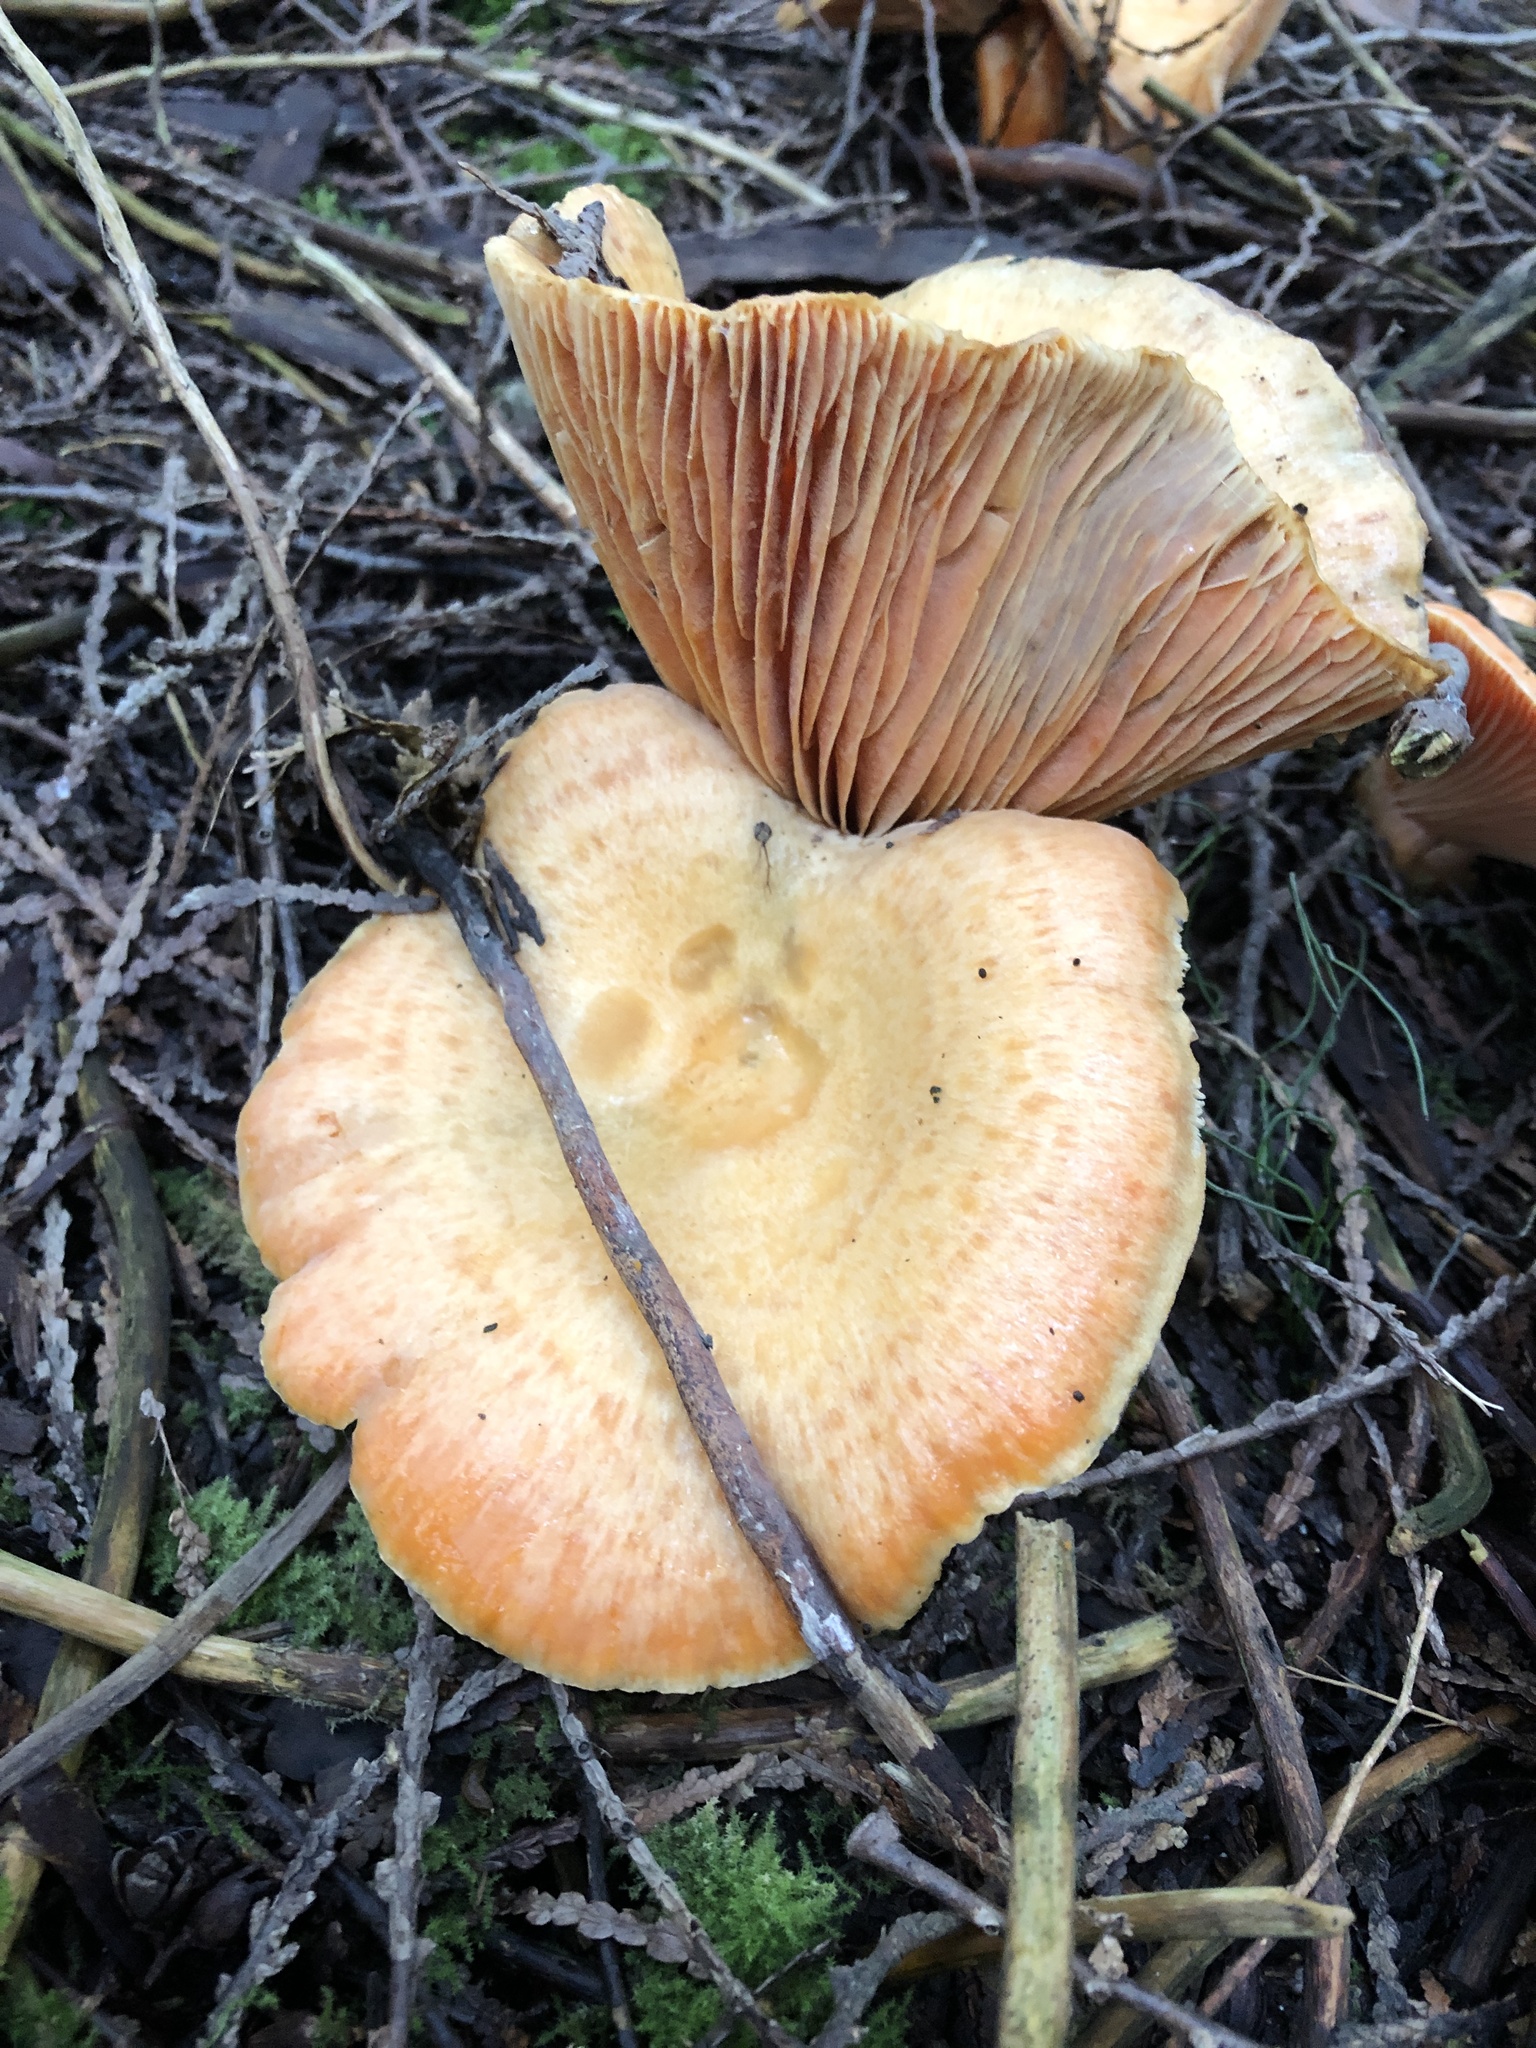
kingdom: Fungi
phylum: Basidiomycota
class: Agaricomycetes
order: Russulales
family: Russulaceae
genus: Lactarius
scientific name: Lactarius deliciosus
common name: Saffron milk-cap
